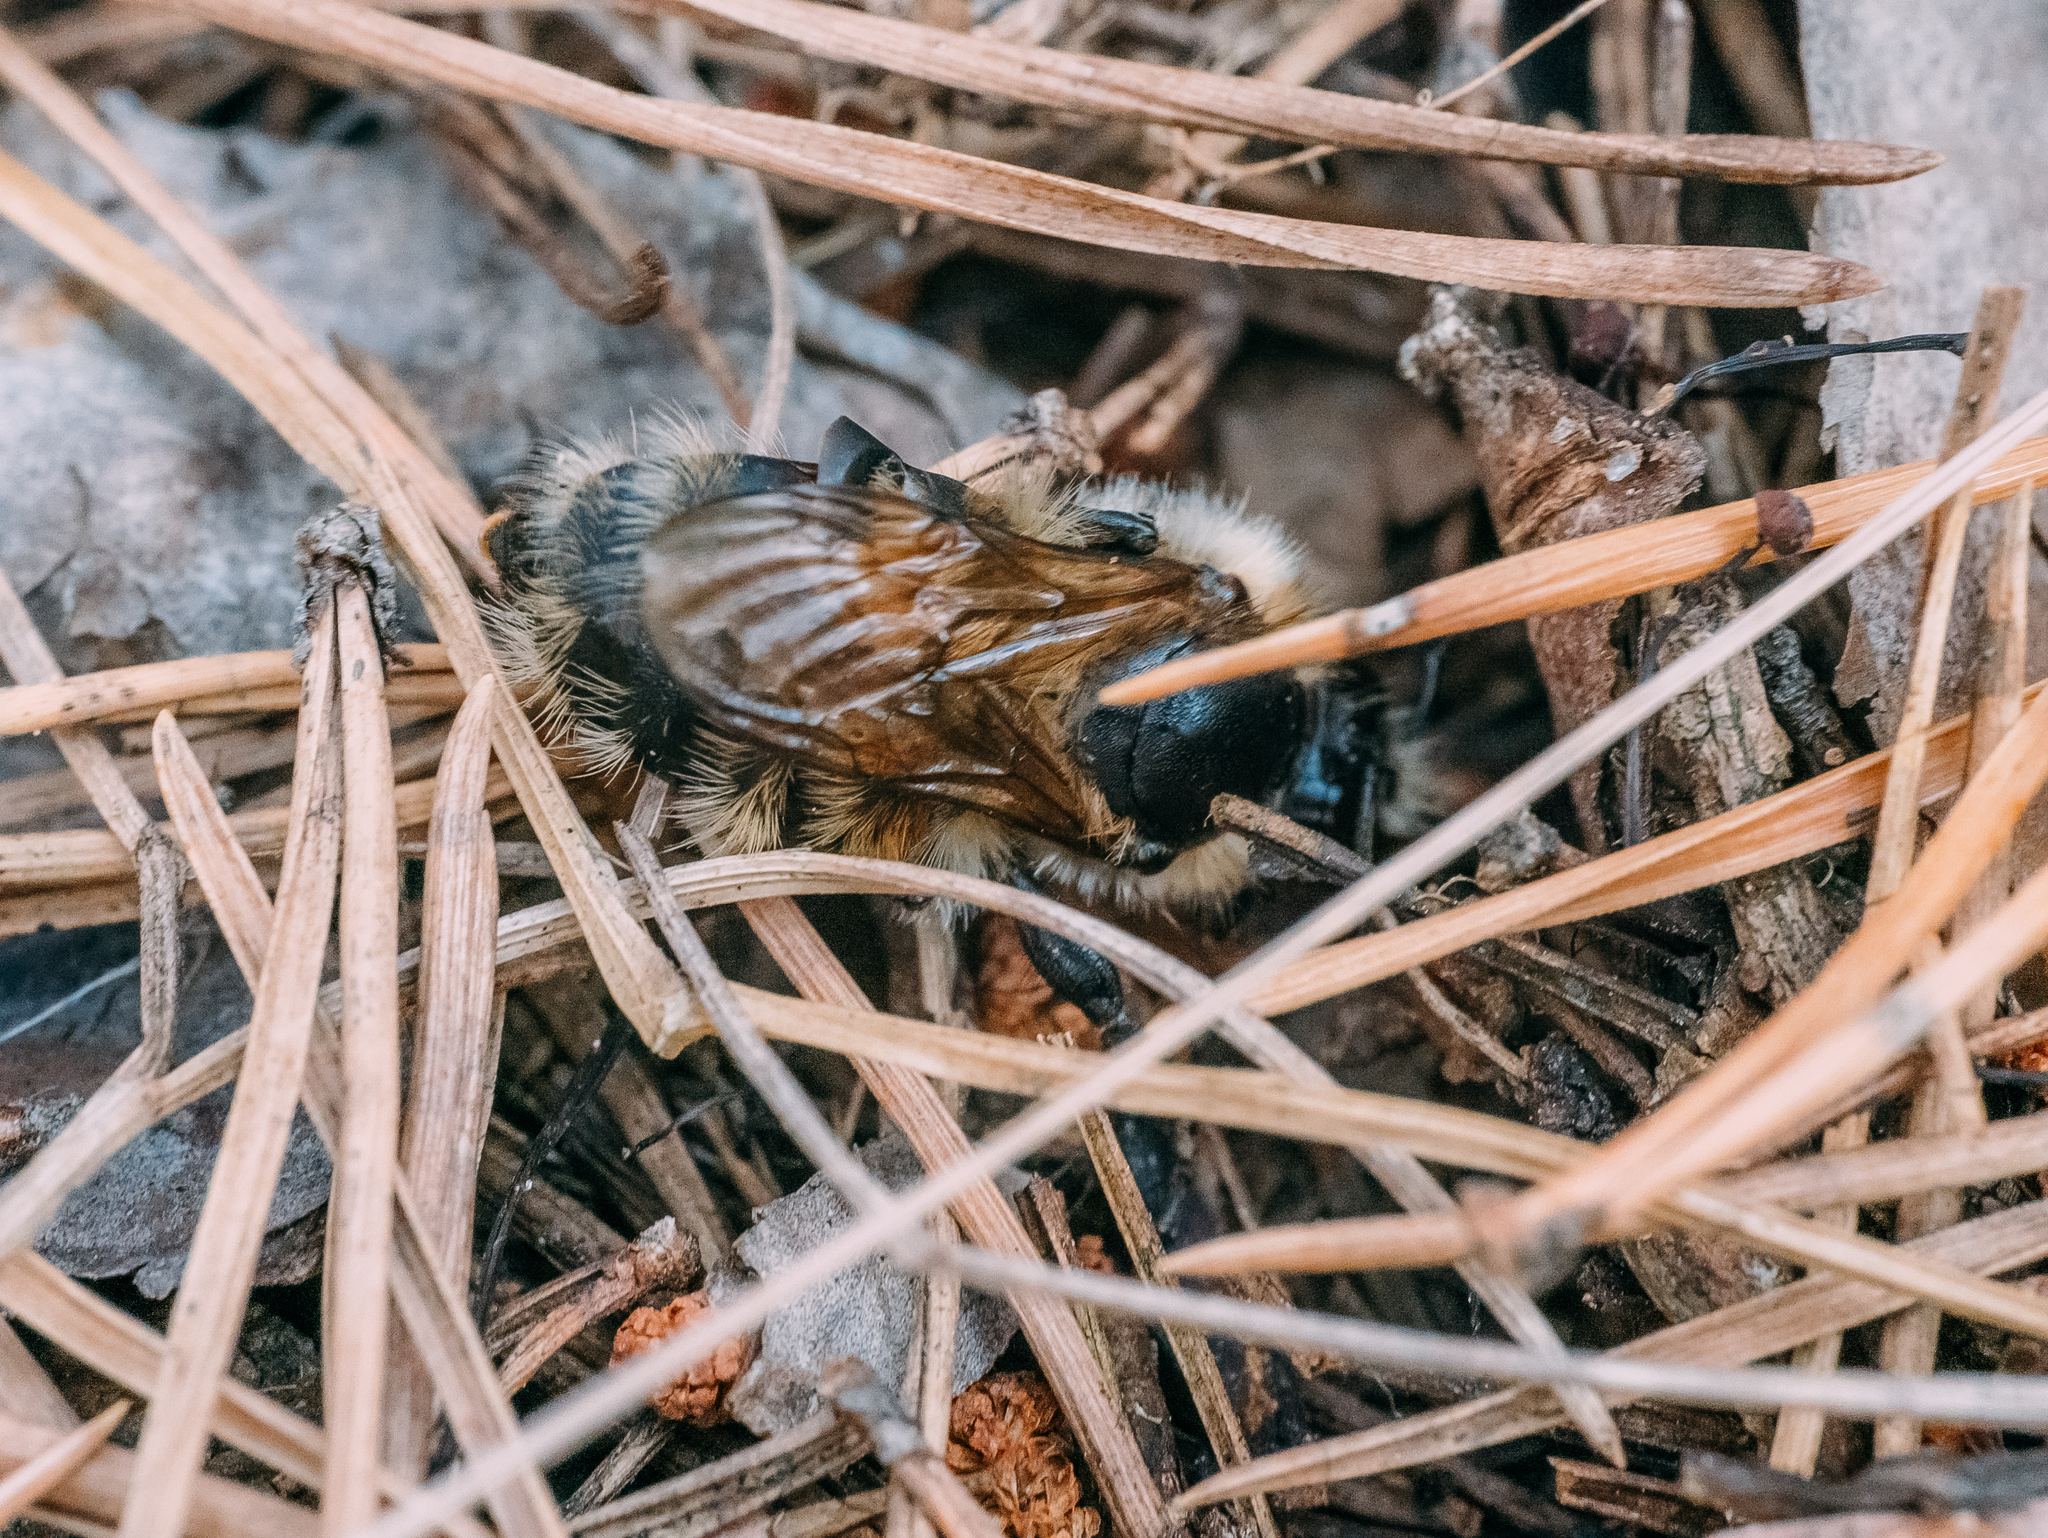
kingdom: Animalia
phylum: Arthropoda
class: Insecta
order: Hymenoptera
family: Apidae
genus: Bombus
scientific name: Bombus
